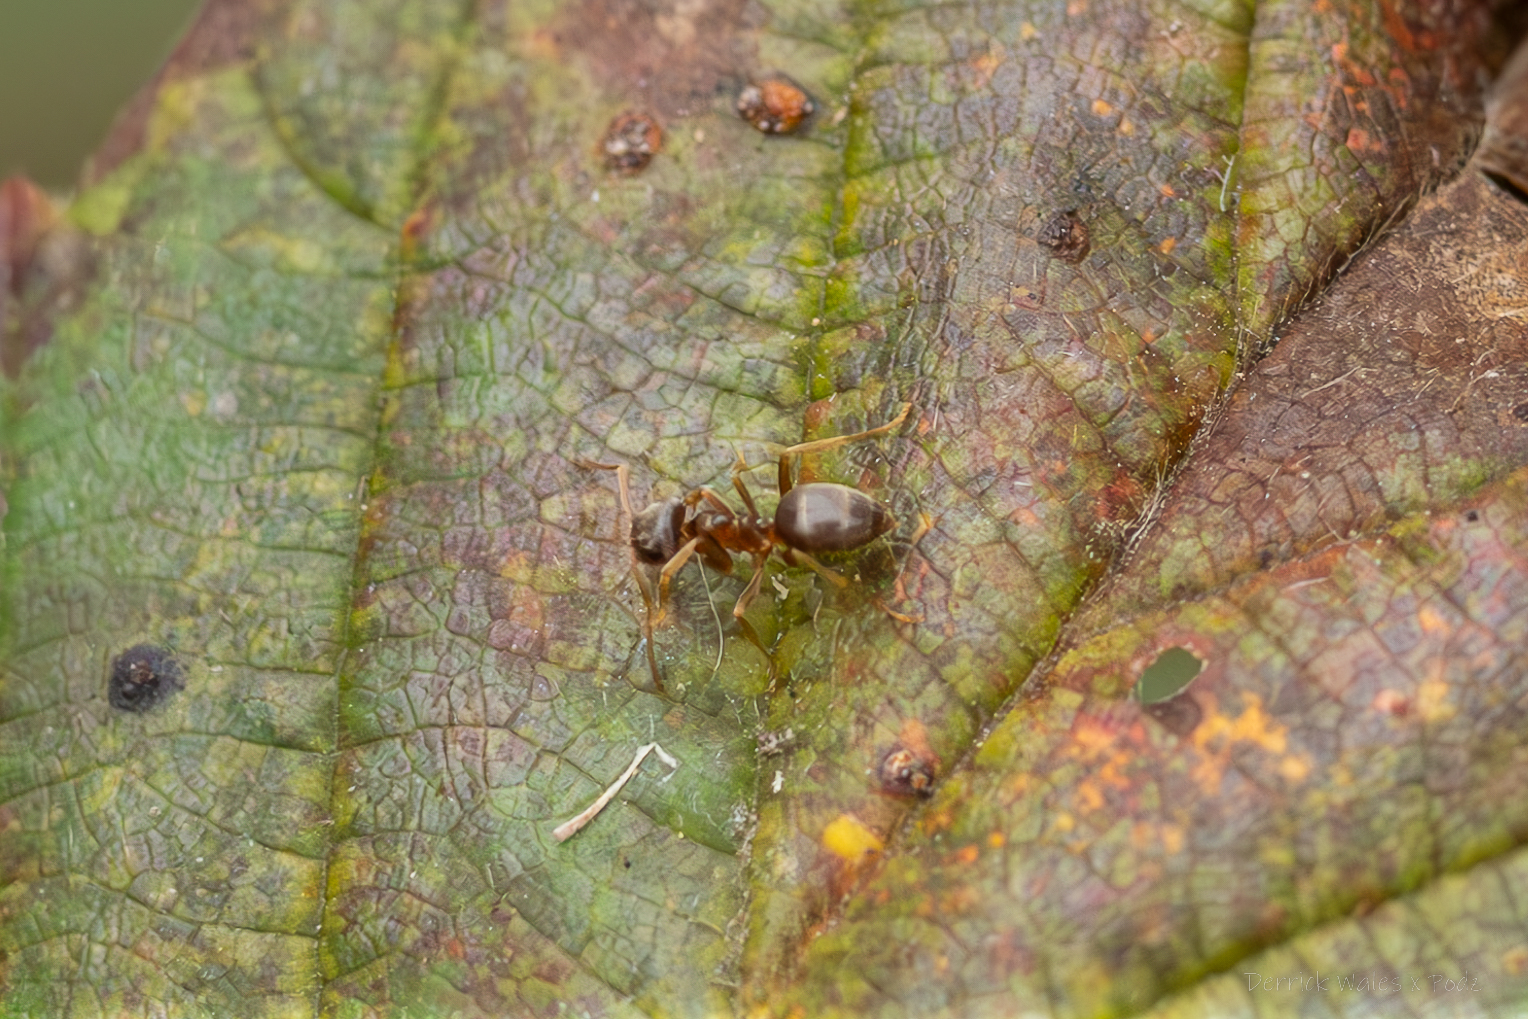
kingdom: Animalia
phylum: Arthropoda
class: Insecta
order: Hymenoptera
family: Formicidae
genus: Lasius
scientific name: Lasius neoniger
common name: Turfgrass ant
